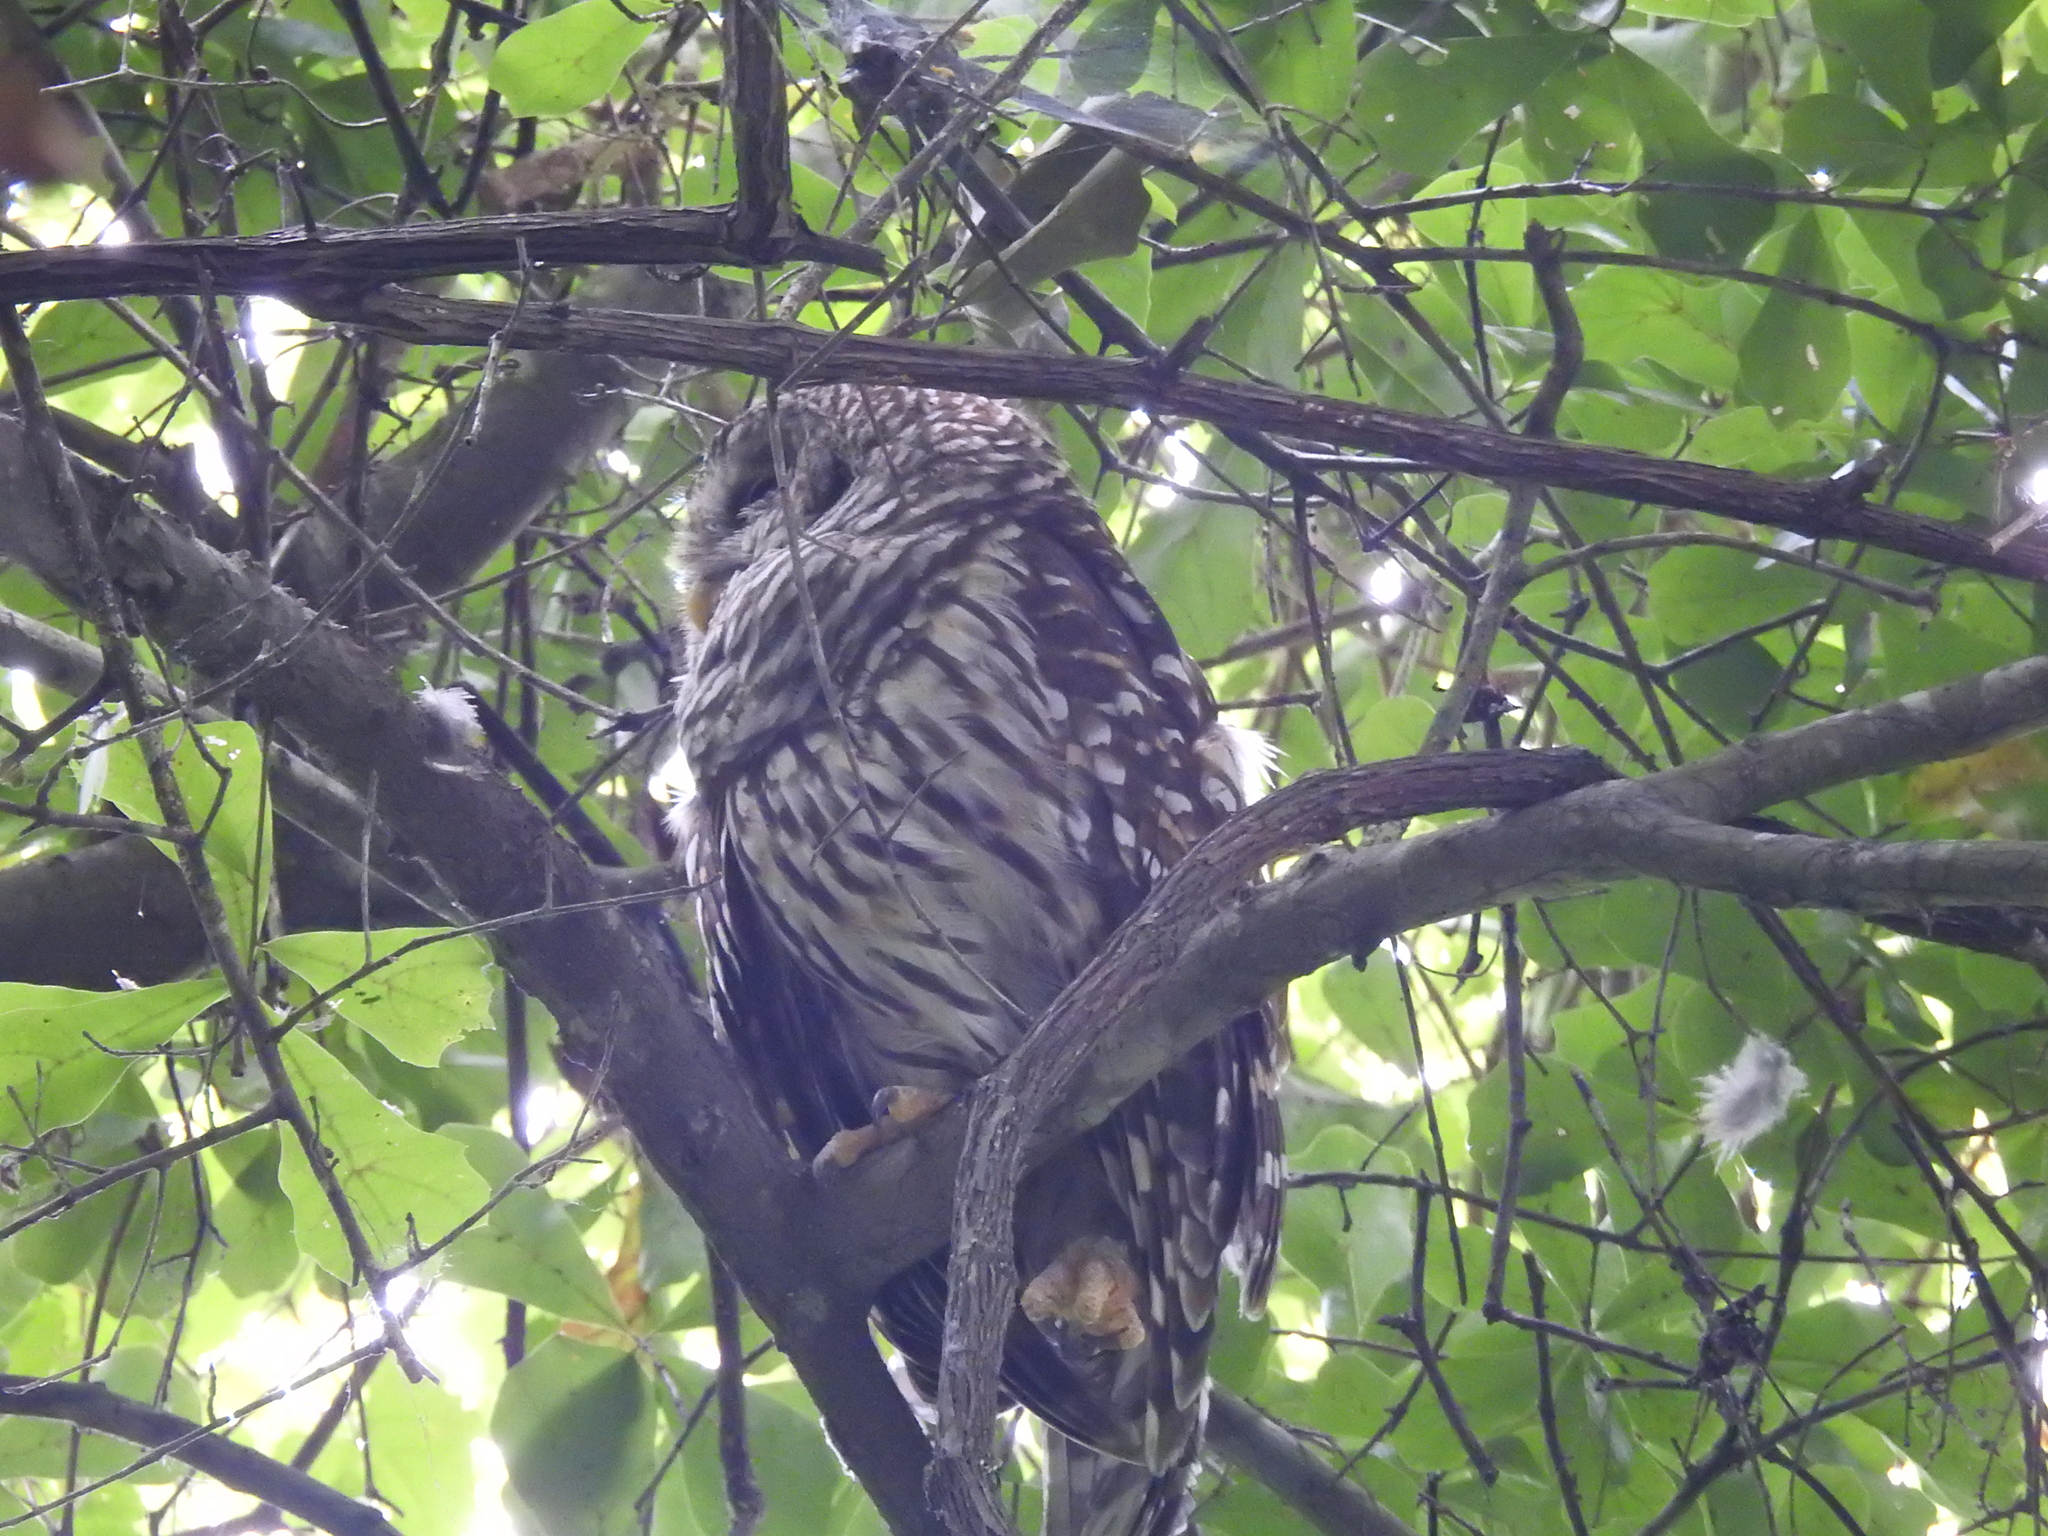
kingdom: Animalia
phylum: Chordata
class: Aves
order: Strigiformes
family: Strigidae
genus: Strix
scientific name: Strix varia
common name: Barred owl
